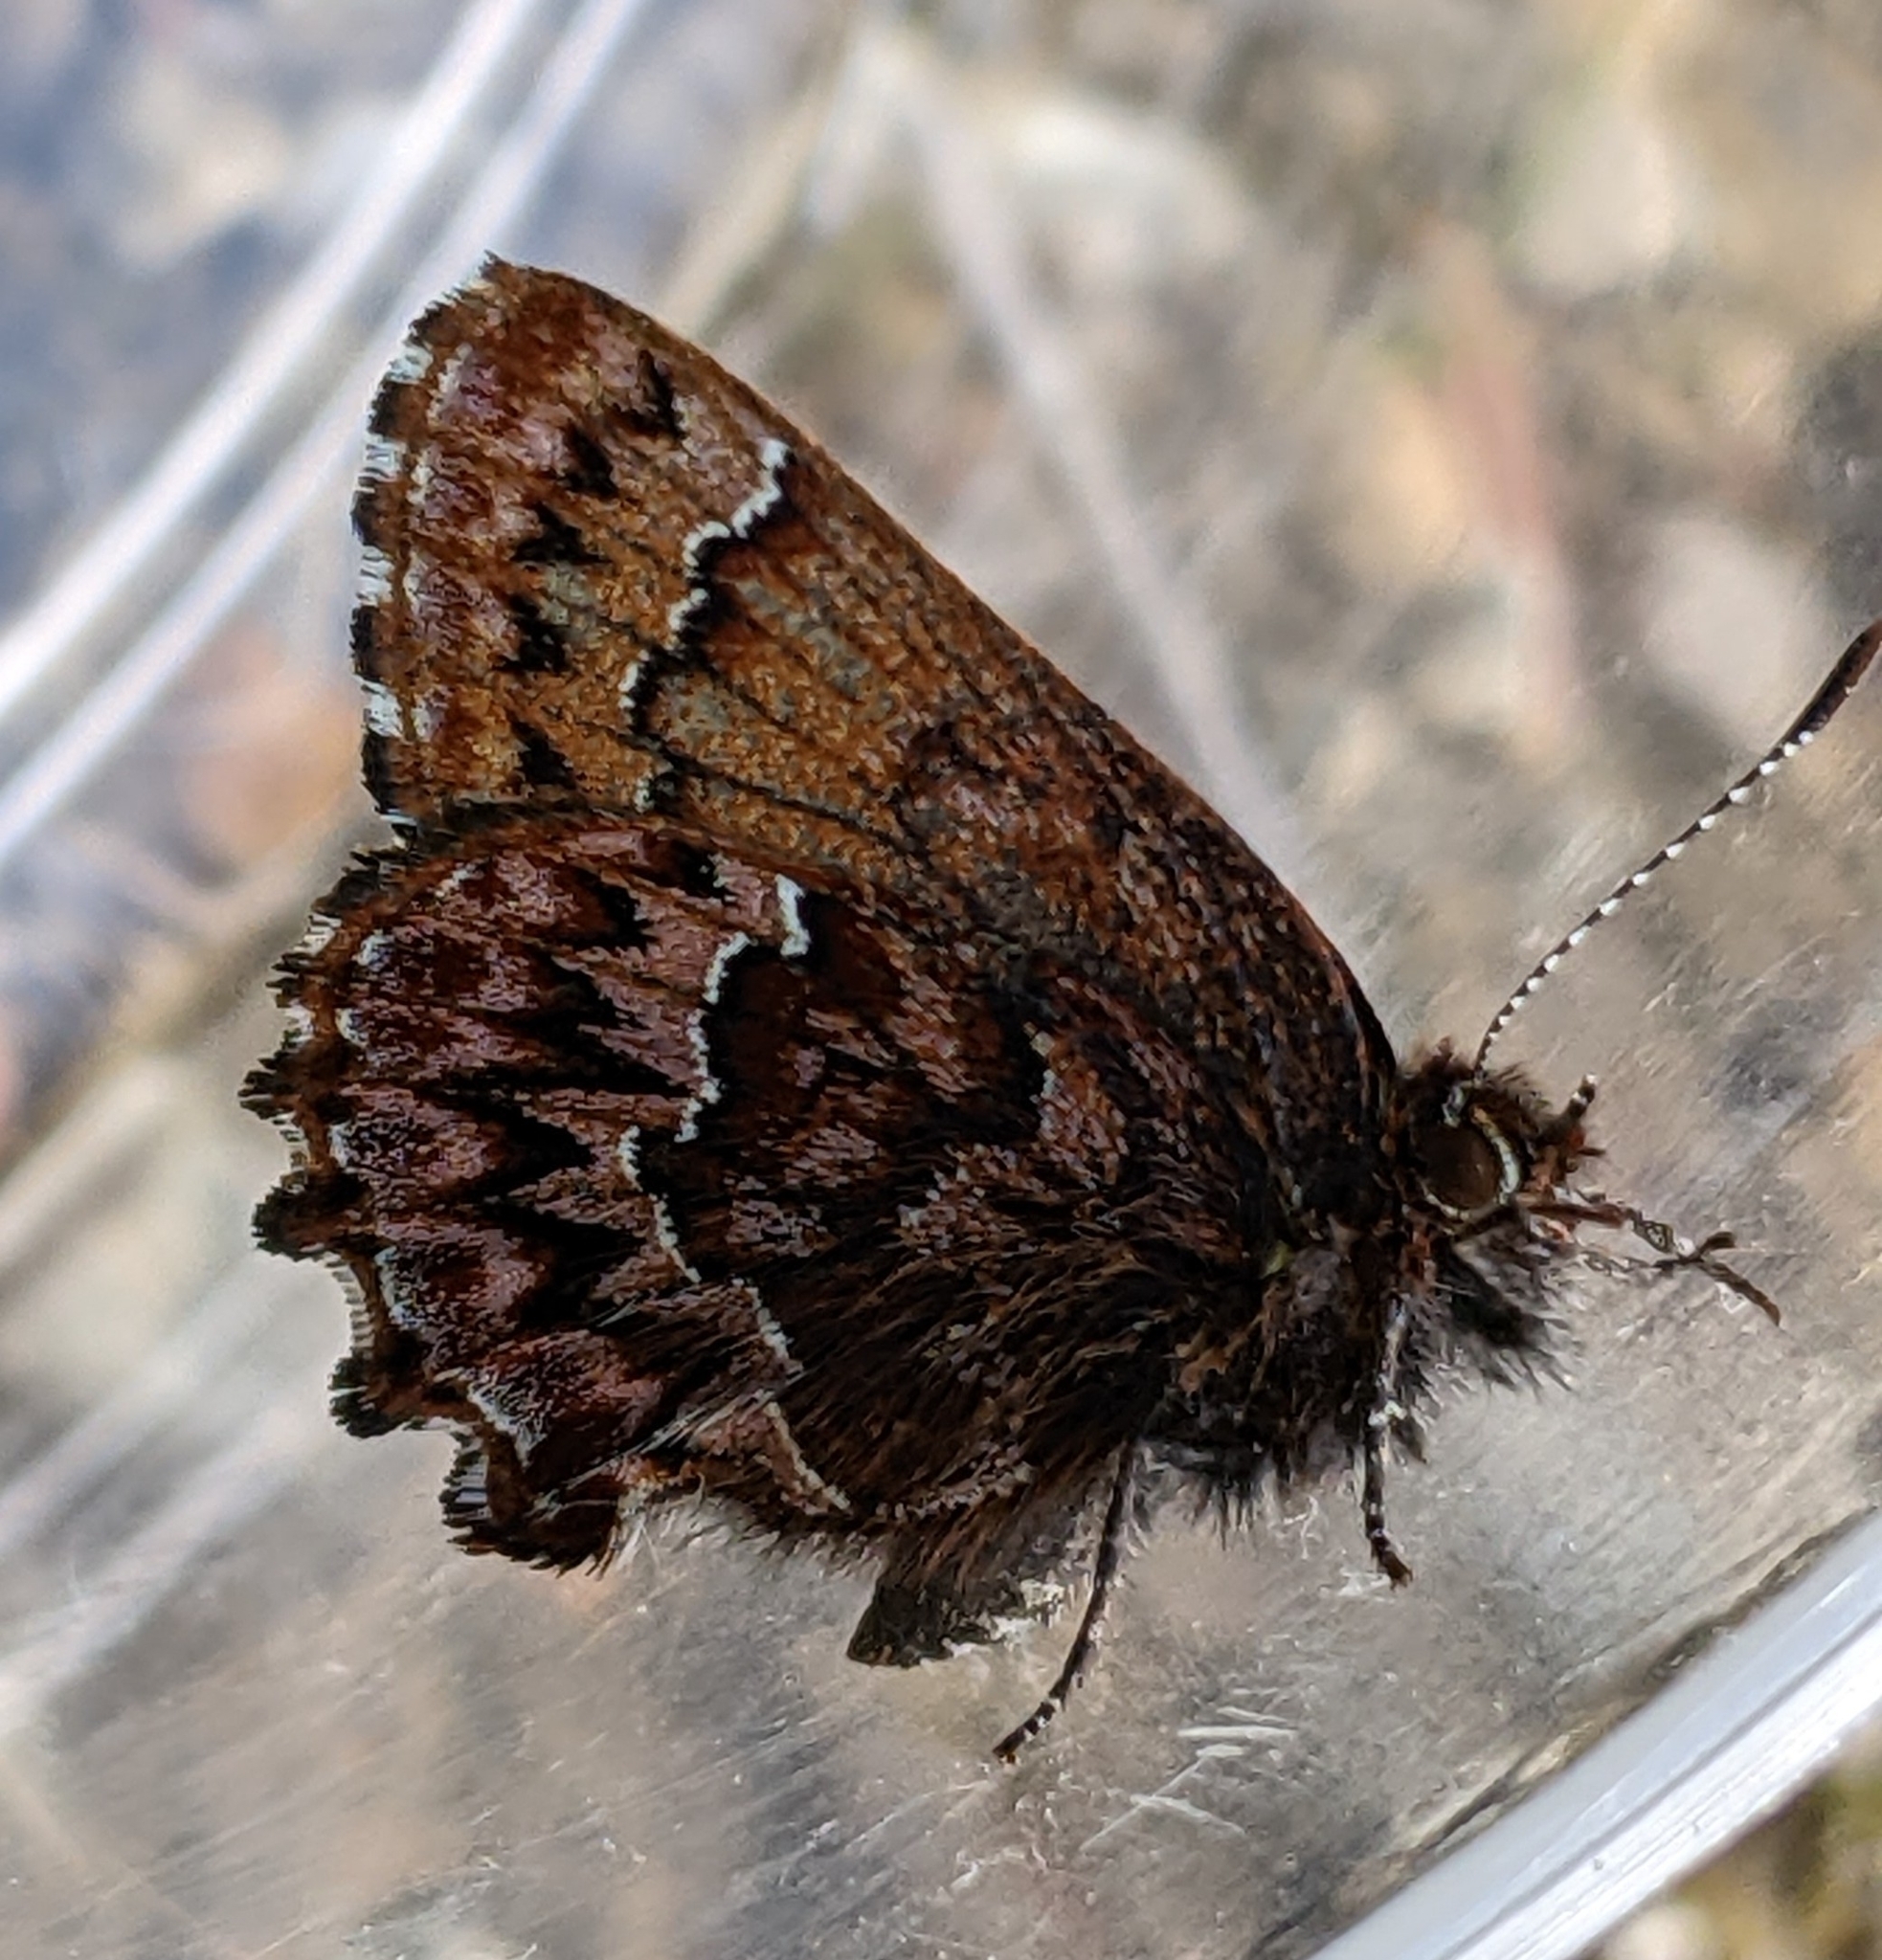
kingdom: Animalia
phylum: Arthropoda
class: Insecta
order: Lepidoptera
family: Lycaenidae
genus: Incisalia
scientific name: Incisalia eryphon
